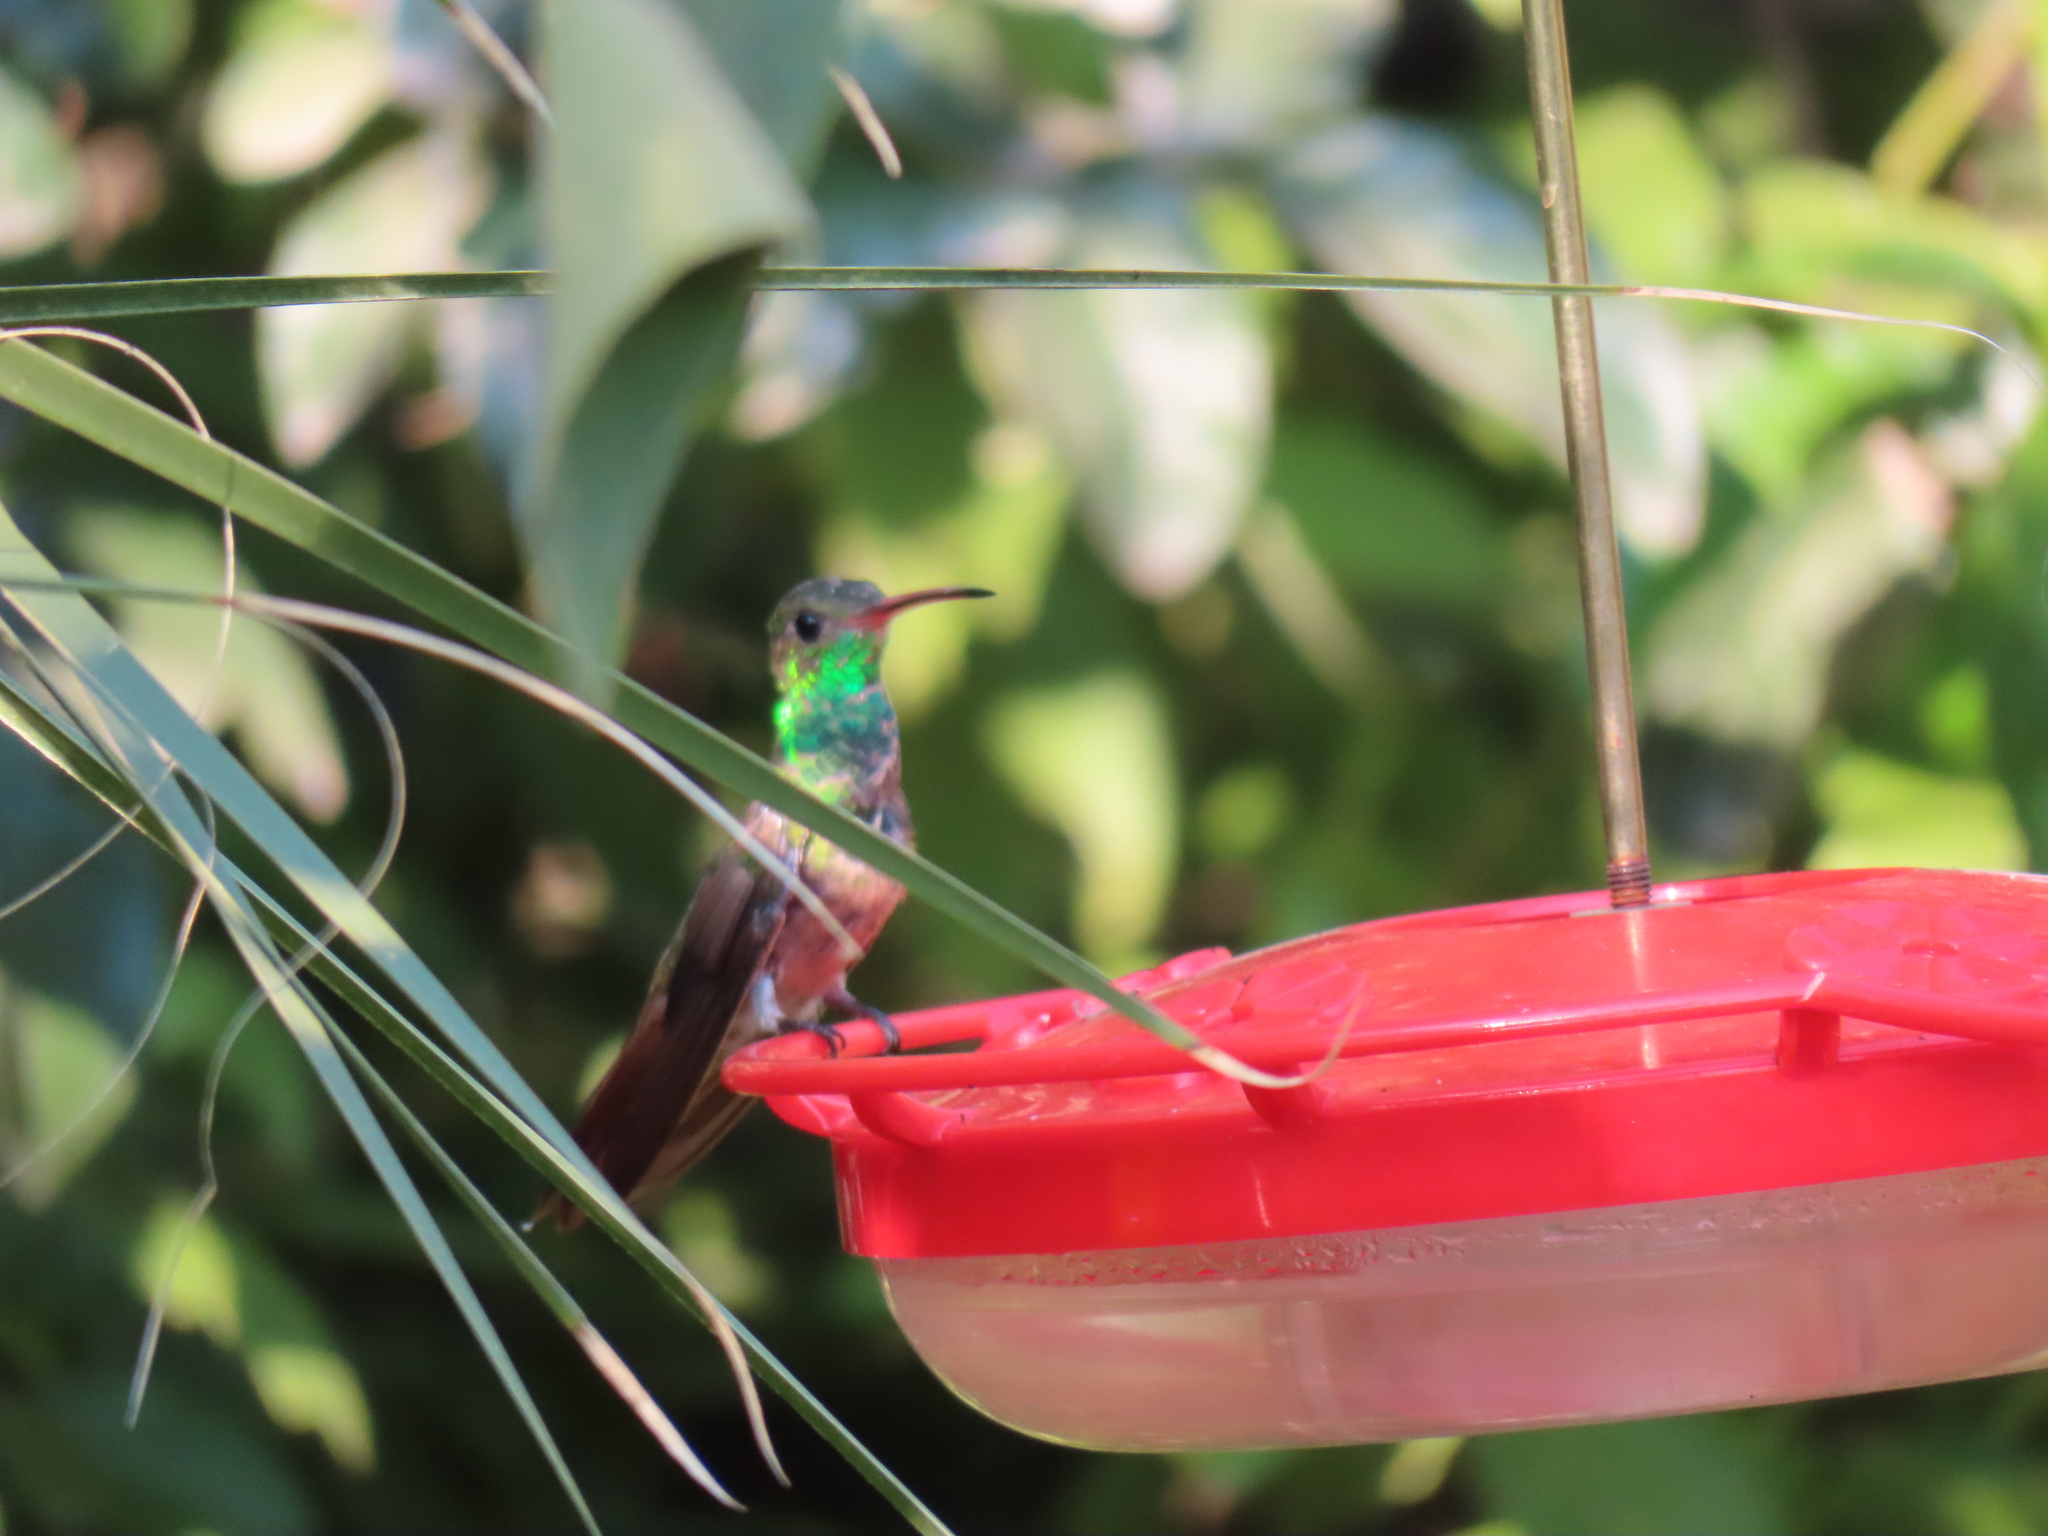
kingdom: Animalia
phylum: Chordata
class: Aves
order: Apodiformes
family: Trochilidae
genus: Amazilia
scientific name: Amazilia yucatanensis
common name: Buff-bellied hummingbird
